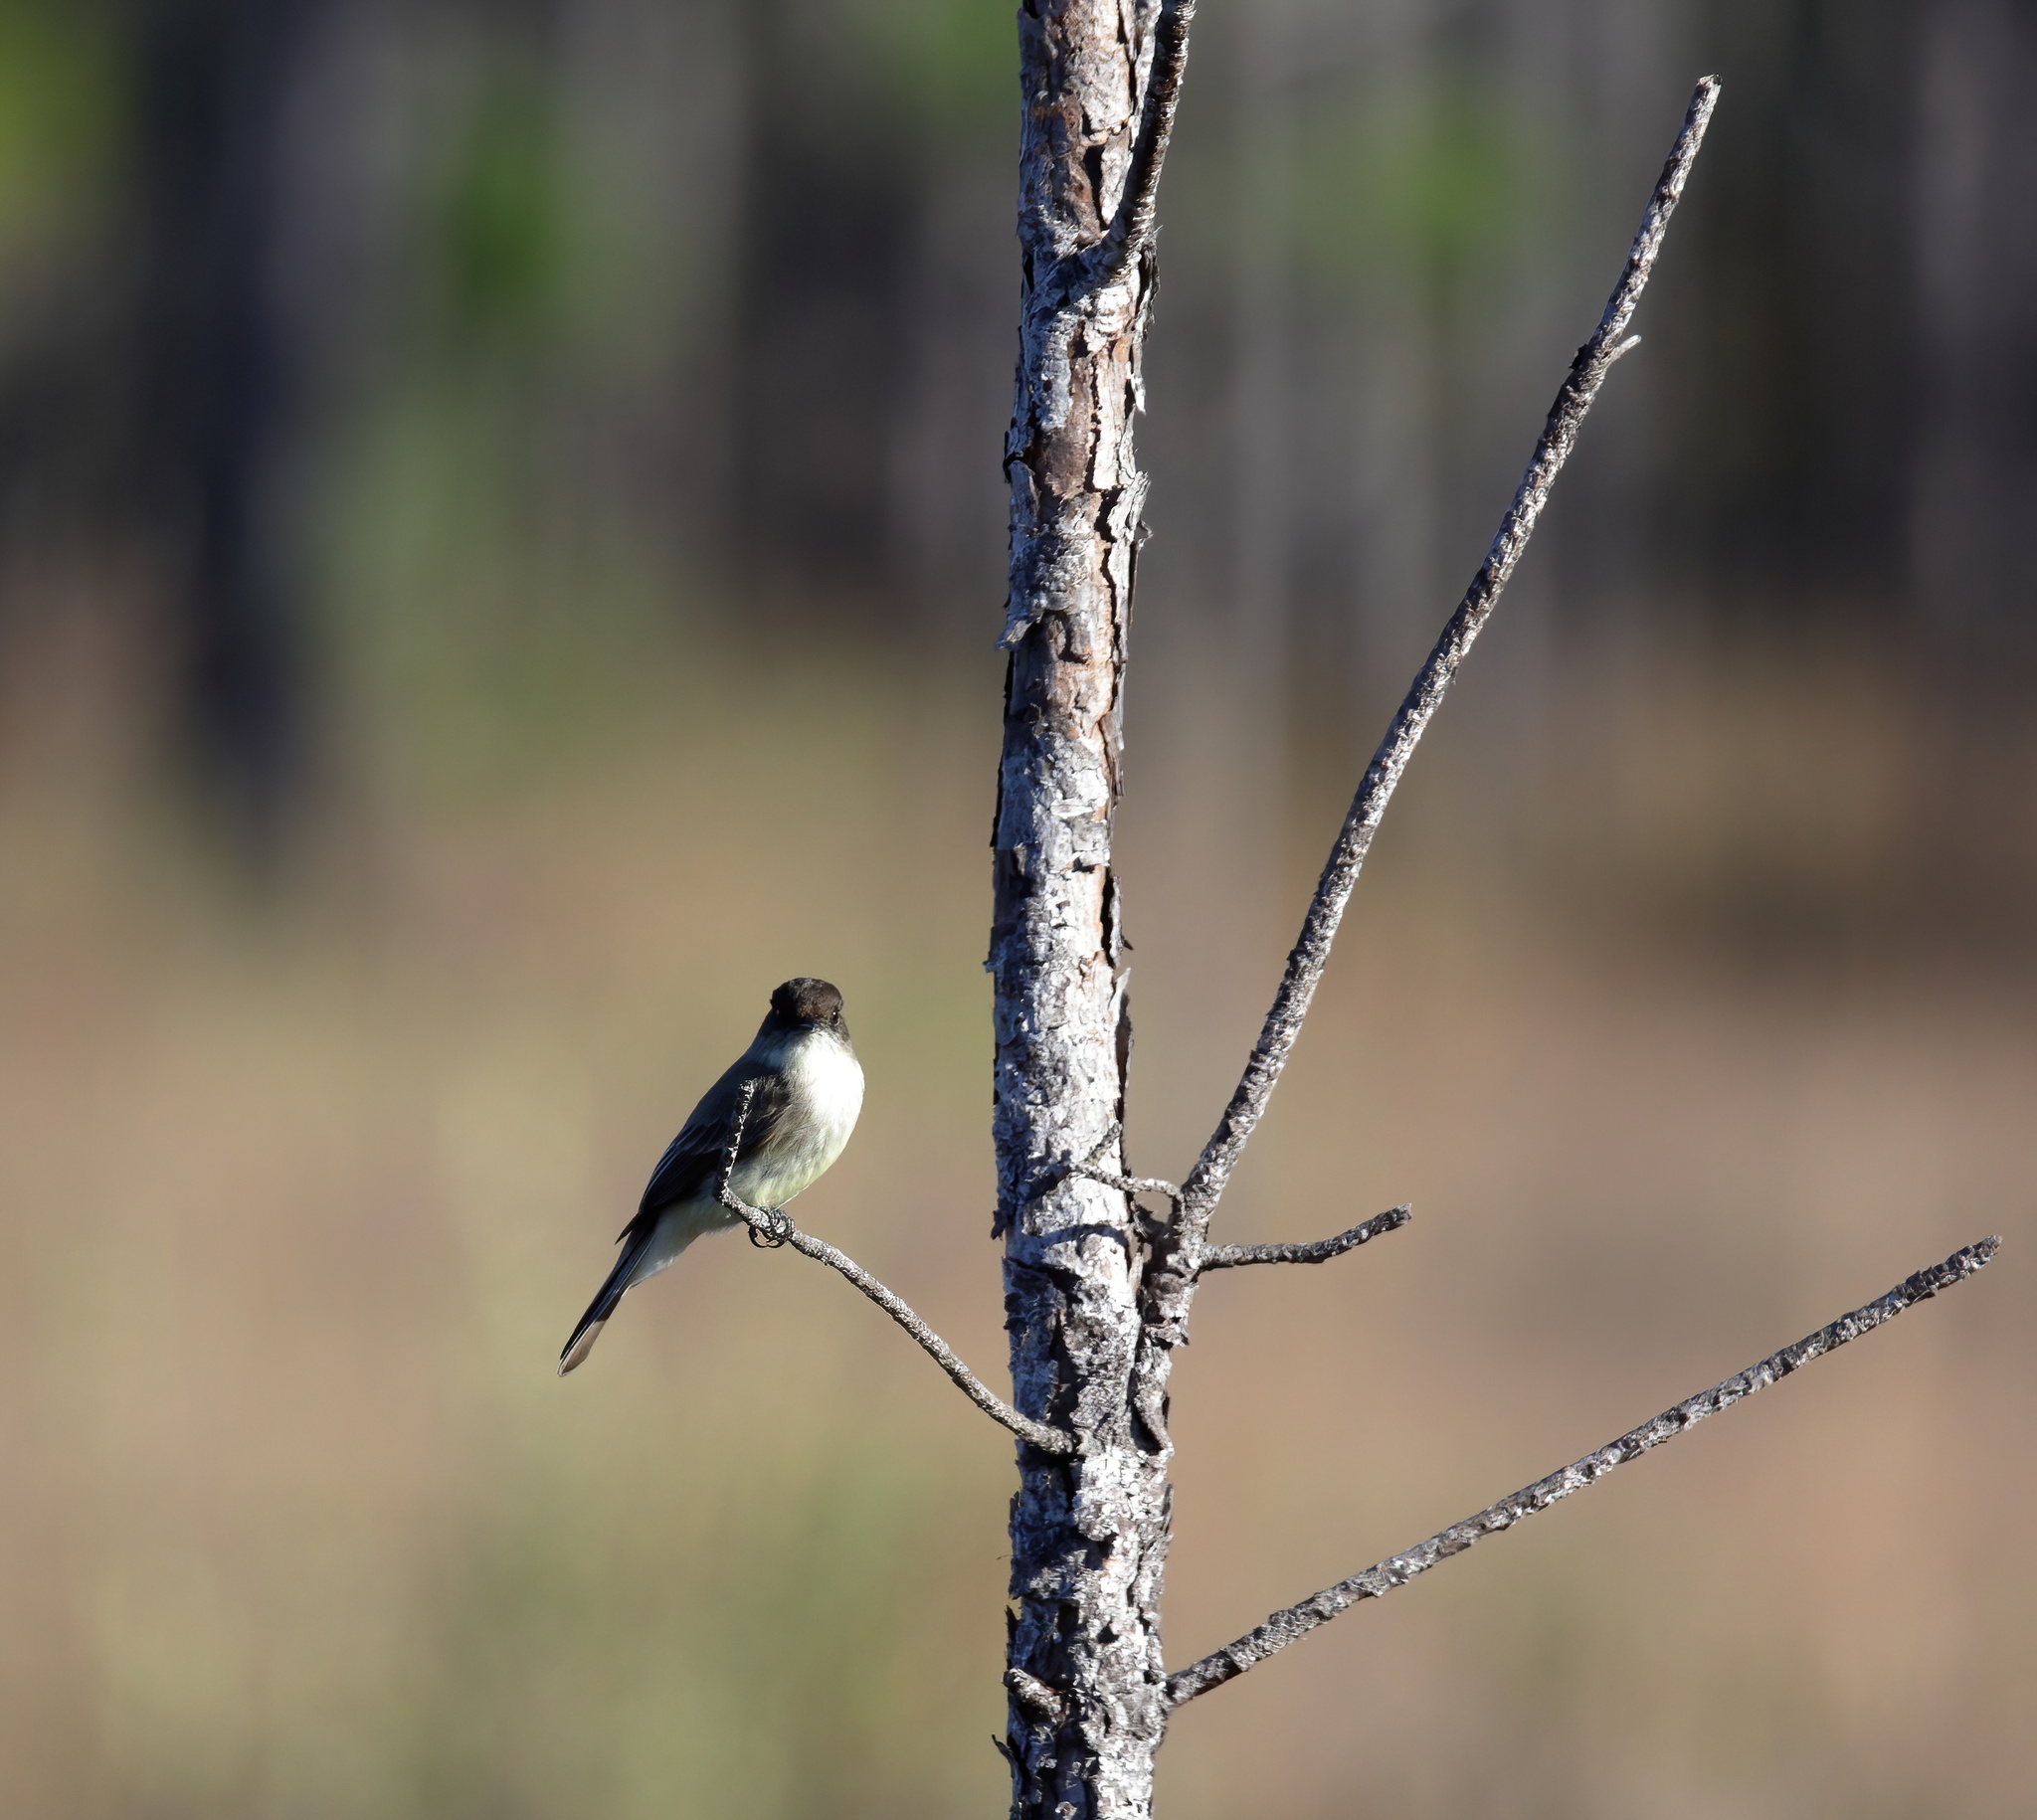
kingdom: Animalia
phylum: Chordata
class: Aves
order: Passeriformes
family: Tyrannidae
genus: Sayornis
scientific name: Sayornis phoebe
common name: Eastern phoebe
